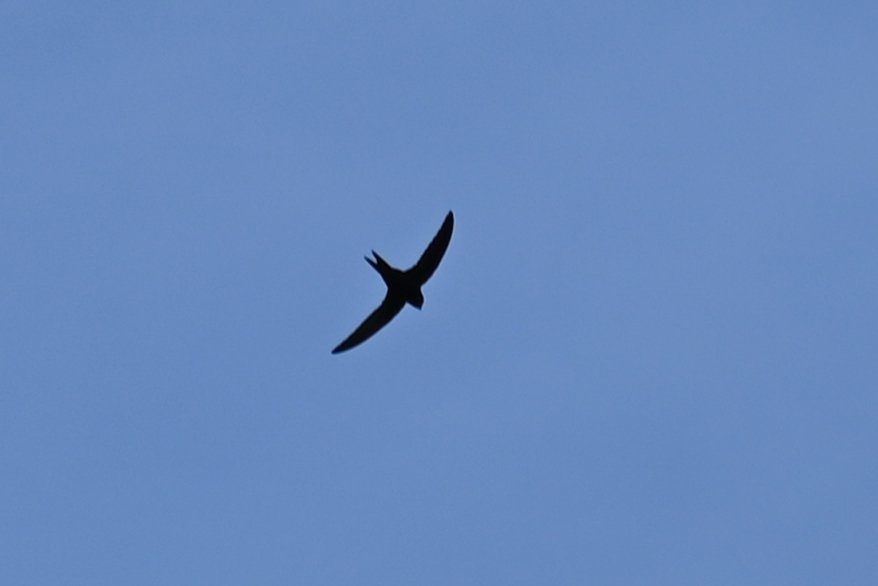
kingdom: Animalia
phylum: Chordata
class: Aves
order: Apodiformes
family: Apodidae
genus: Apus
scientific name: Apus apus
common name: Common swift
